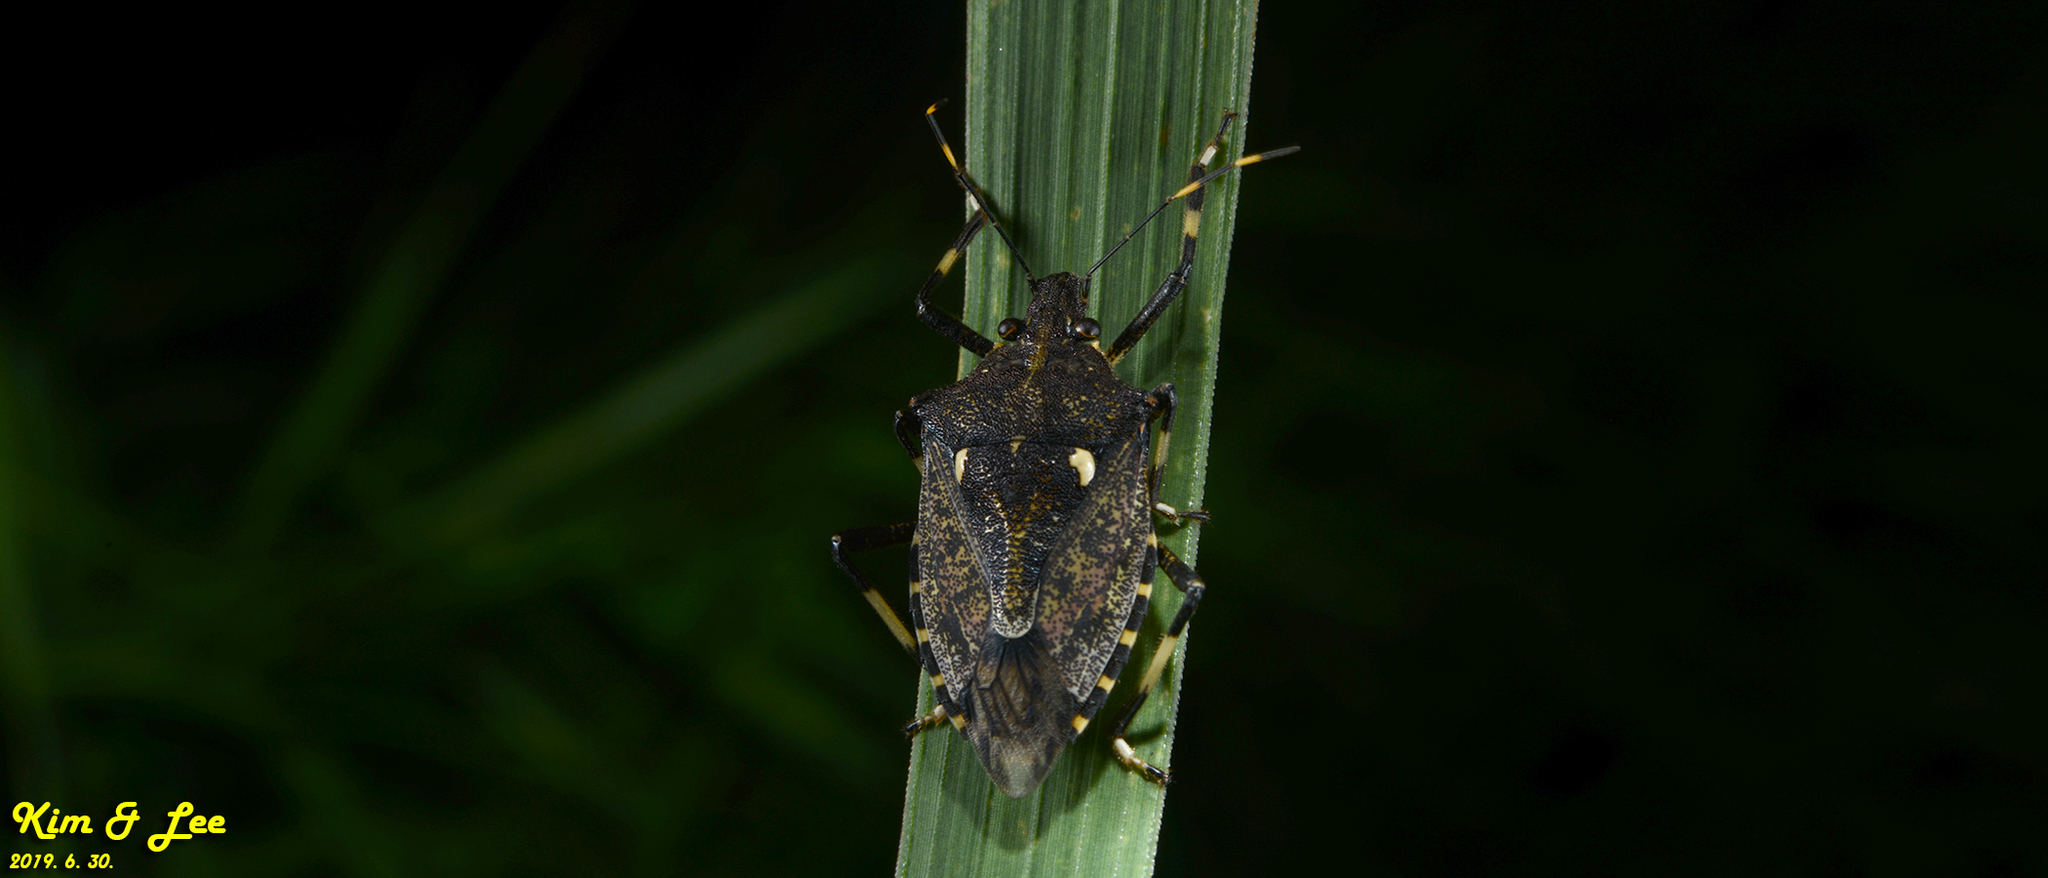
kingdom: Animalia
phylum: Arthropoda
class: Insecta
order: Hemiptera
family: Pentatomidae
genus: Dalpada
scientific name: Dalpada cinctipes
